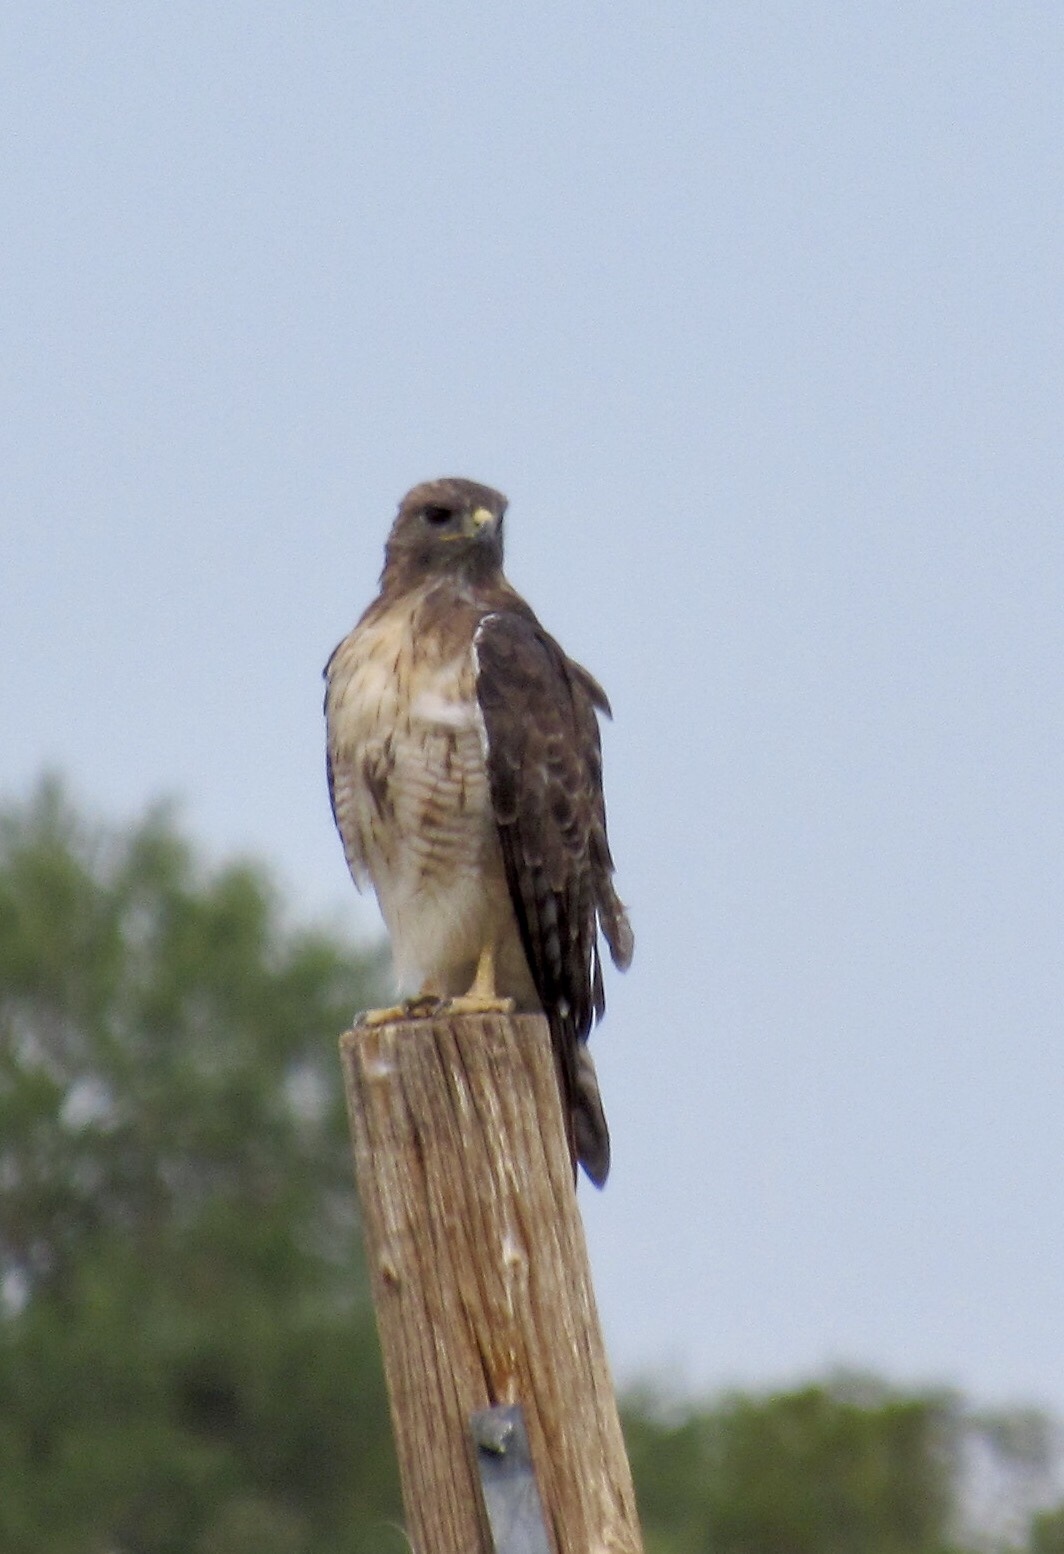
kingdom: Animalia
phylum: Chordata
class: Aves
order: Accipitriformes
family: Accipitridae
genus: Buteo
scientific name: Buteo jamaicensis
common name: Red-tailed hawk
